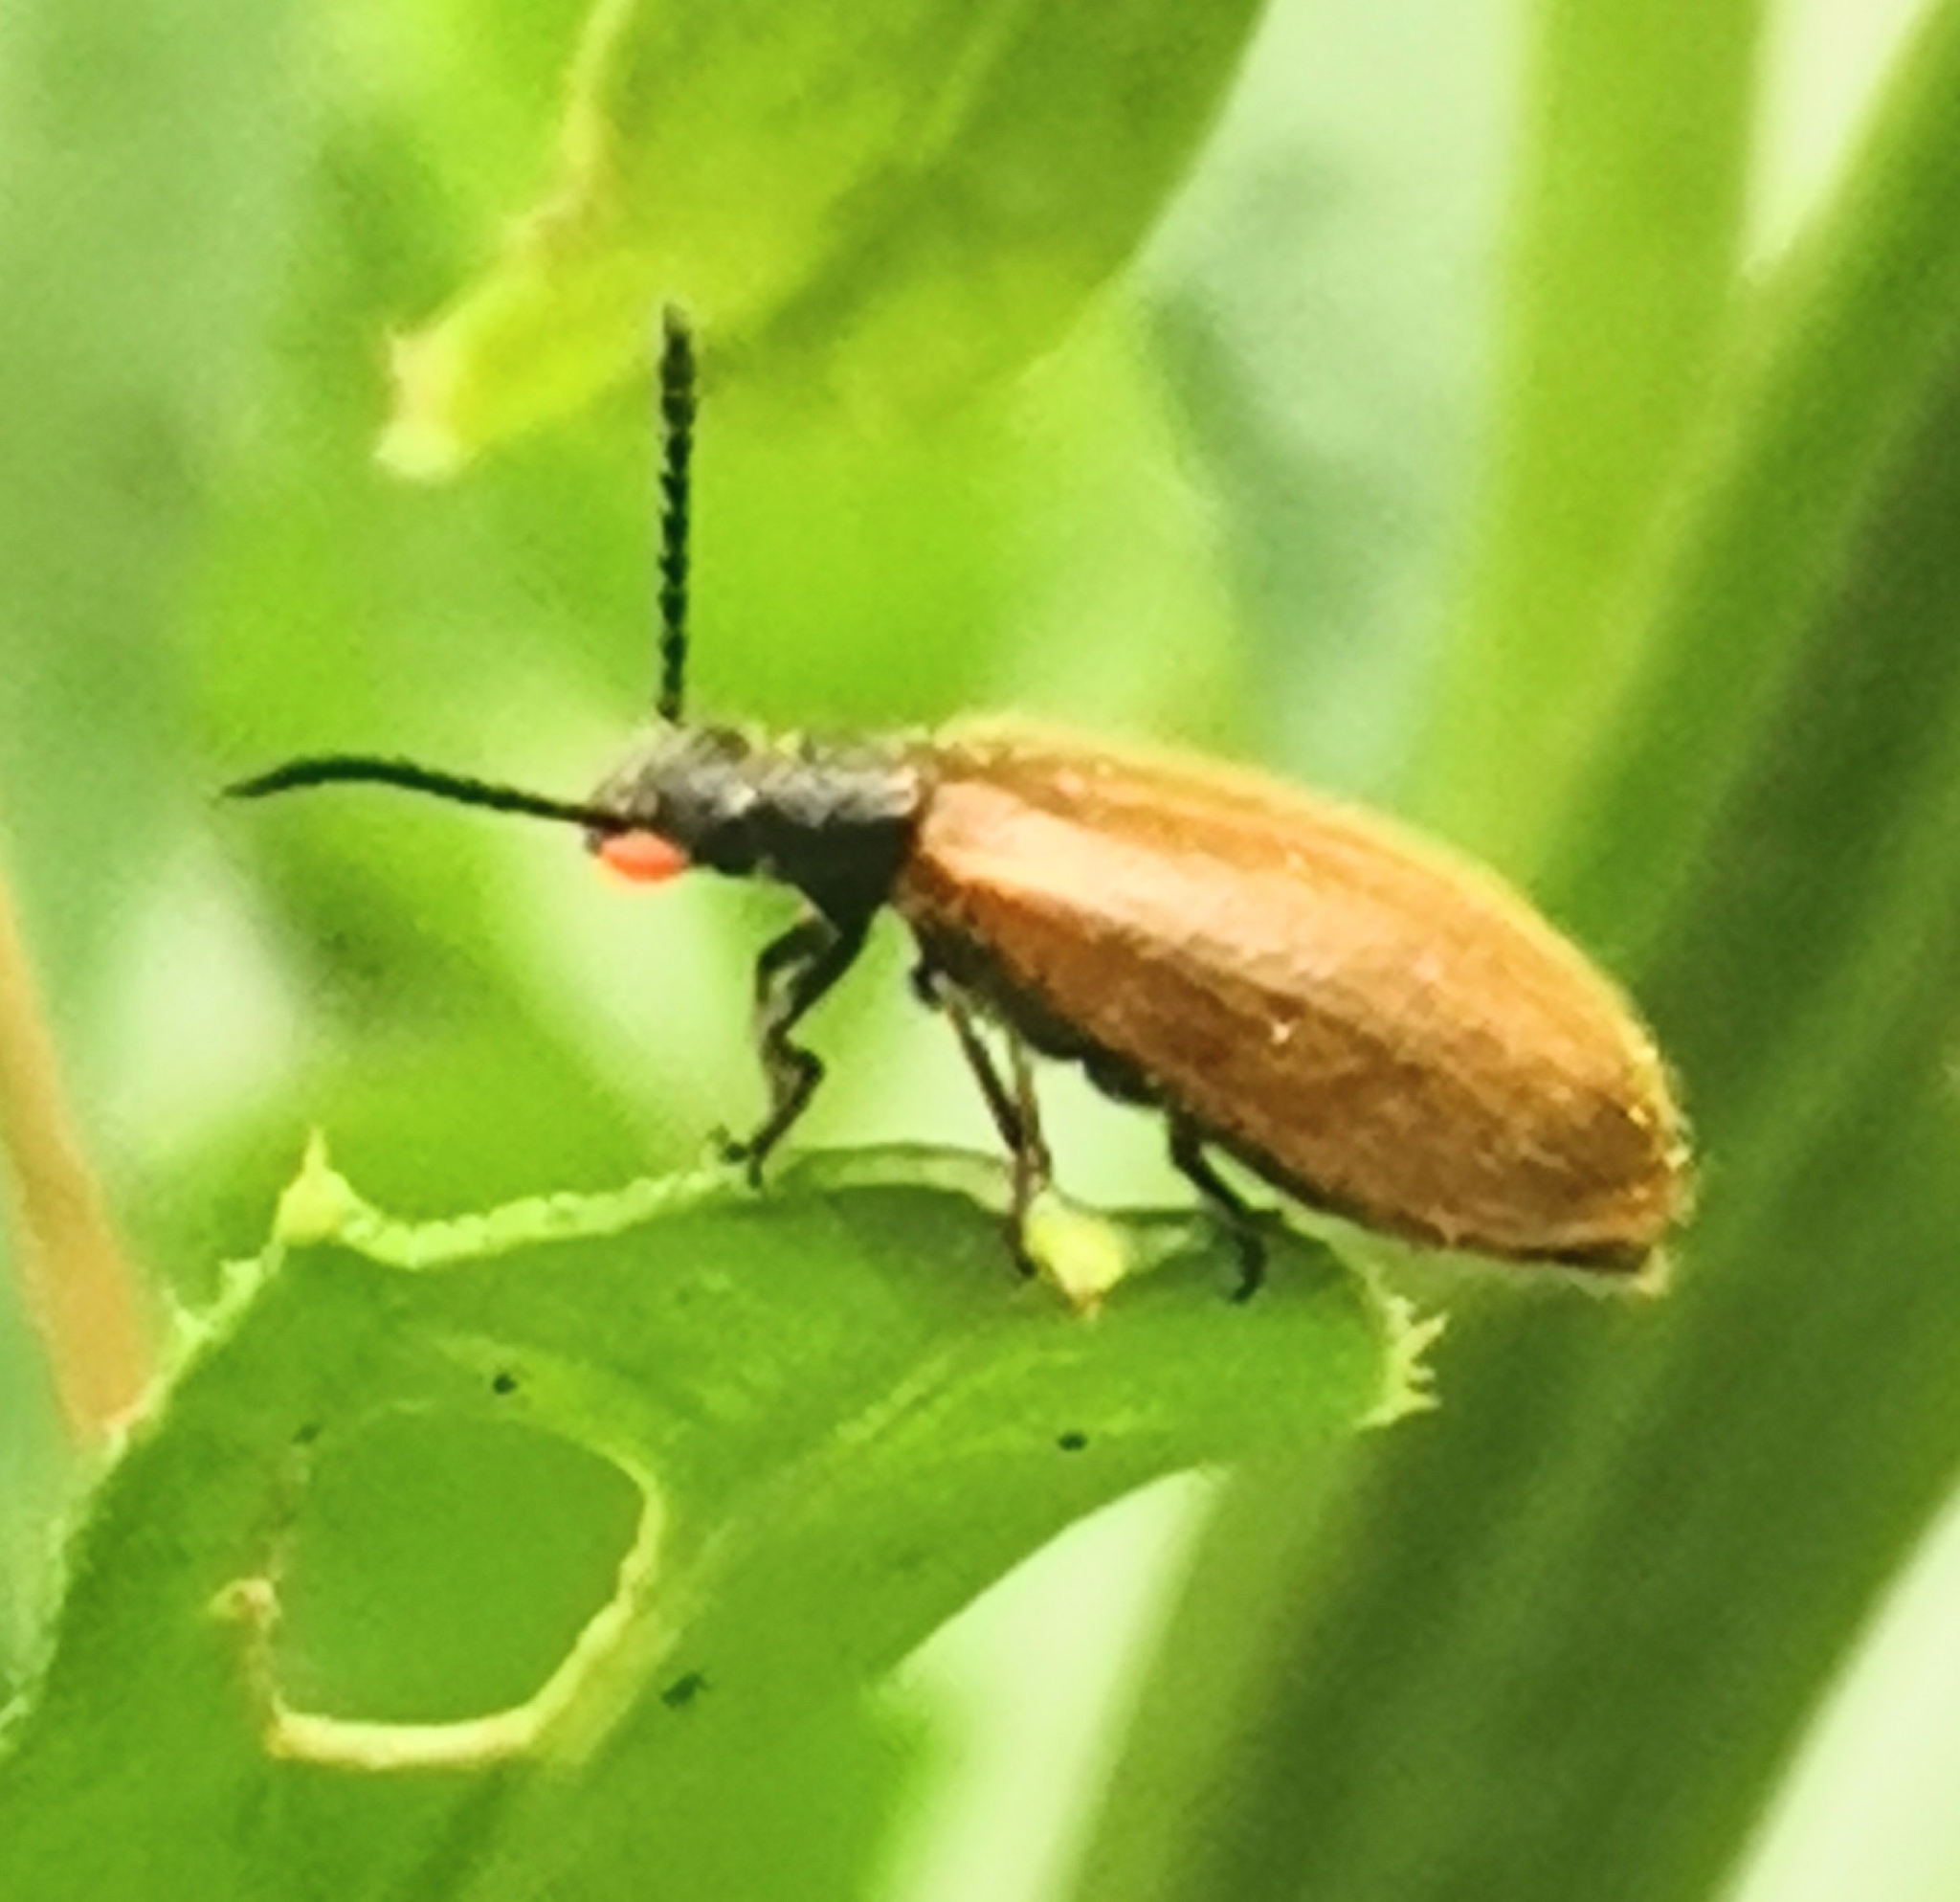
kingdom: Animalia
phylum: Arthropoda
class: Insecta
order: Coleoptera
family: Tenebrionidae
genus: Lagria
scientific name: Lagria hirta
